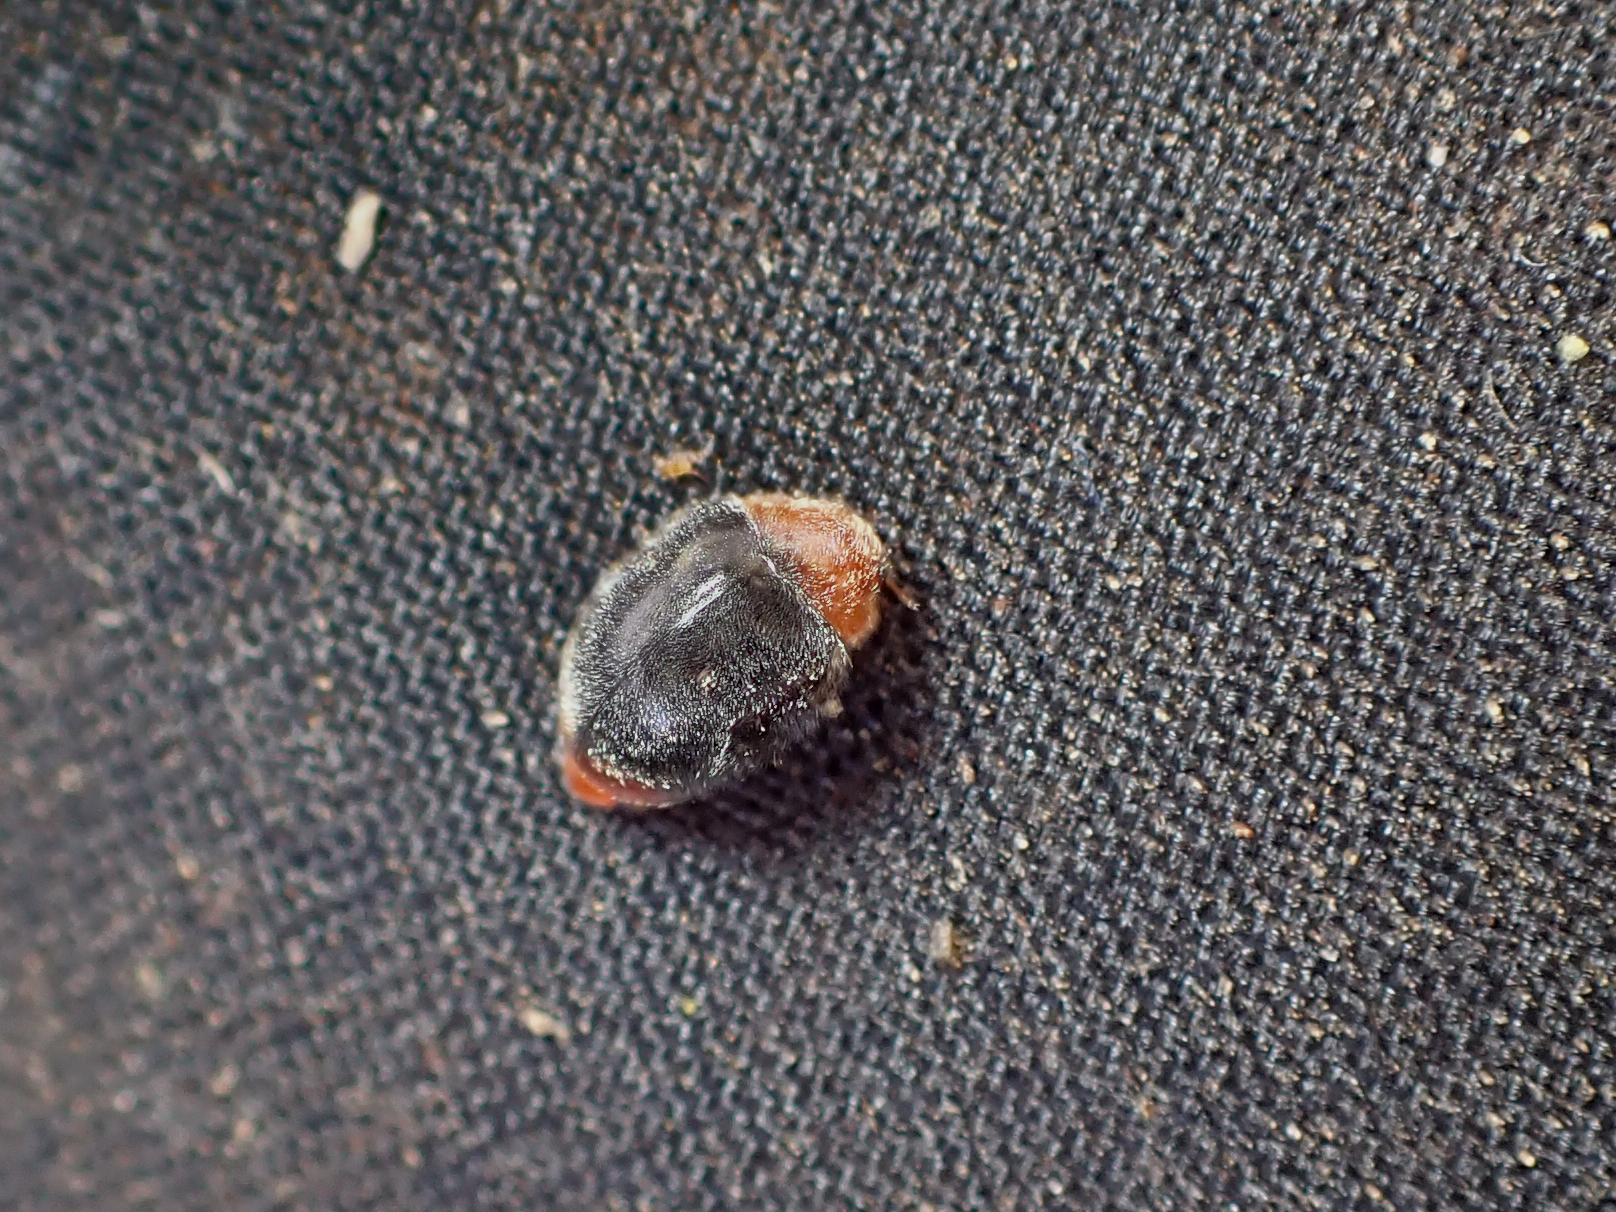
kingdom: Animalia
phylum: Arthropoda
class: Insecta
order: Coleoptera
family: Coccinellidae
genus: Cryptolaemus
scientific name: Cryptolaemus montrouzieri
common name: Mealybug destroyer
